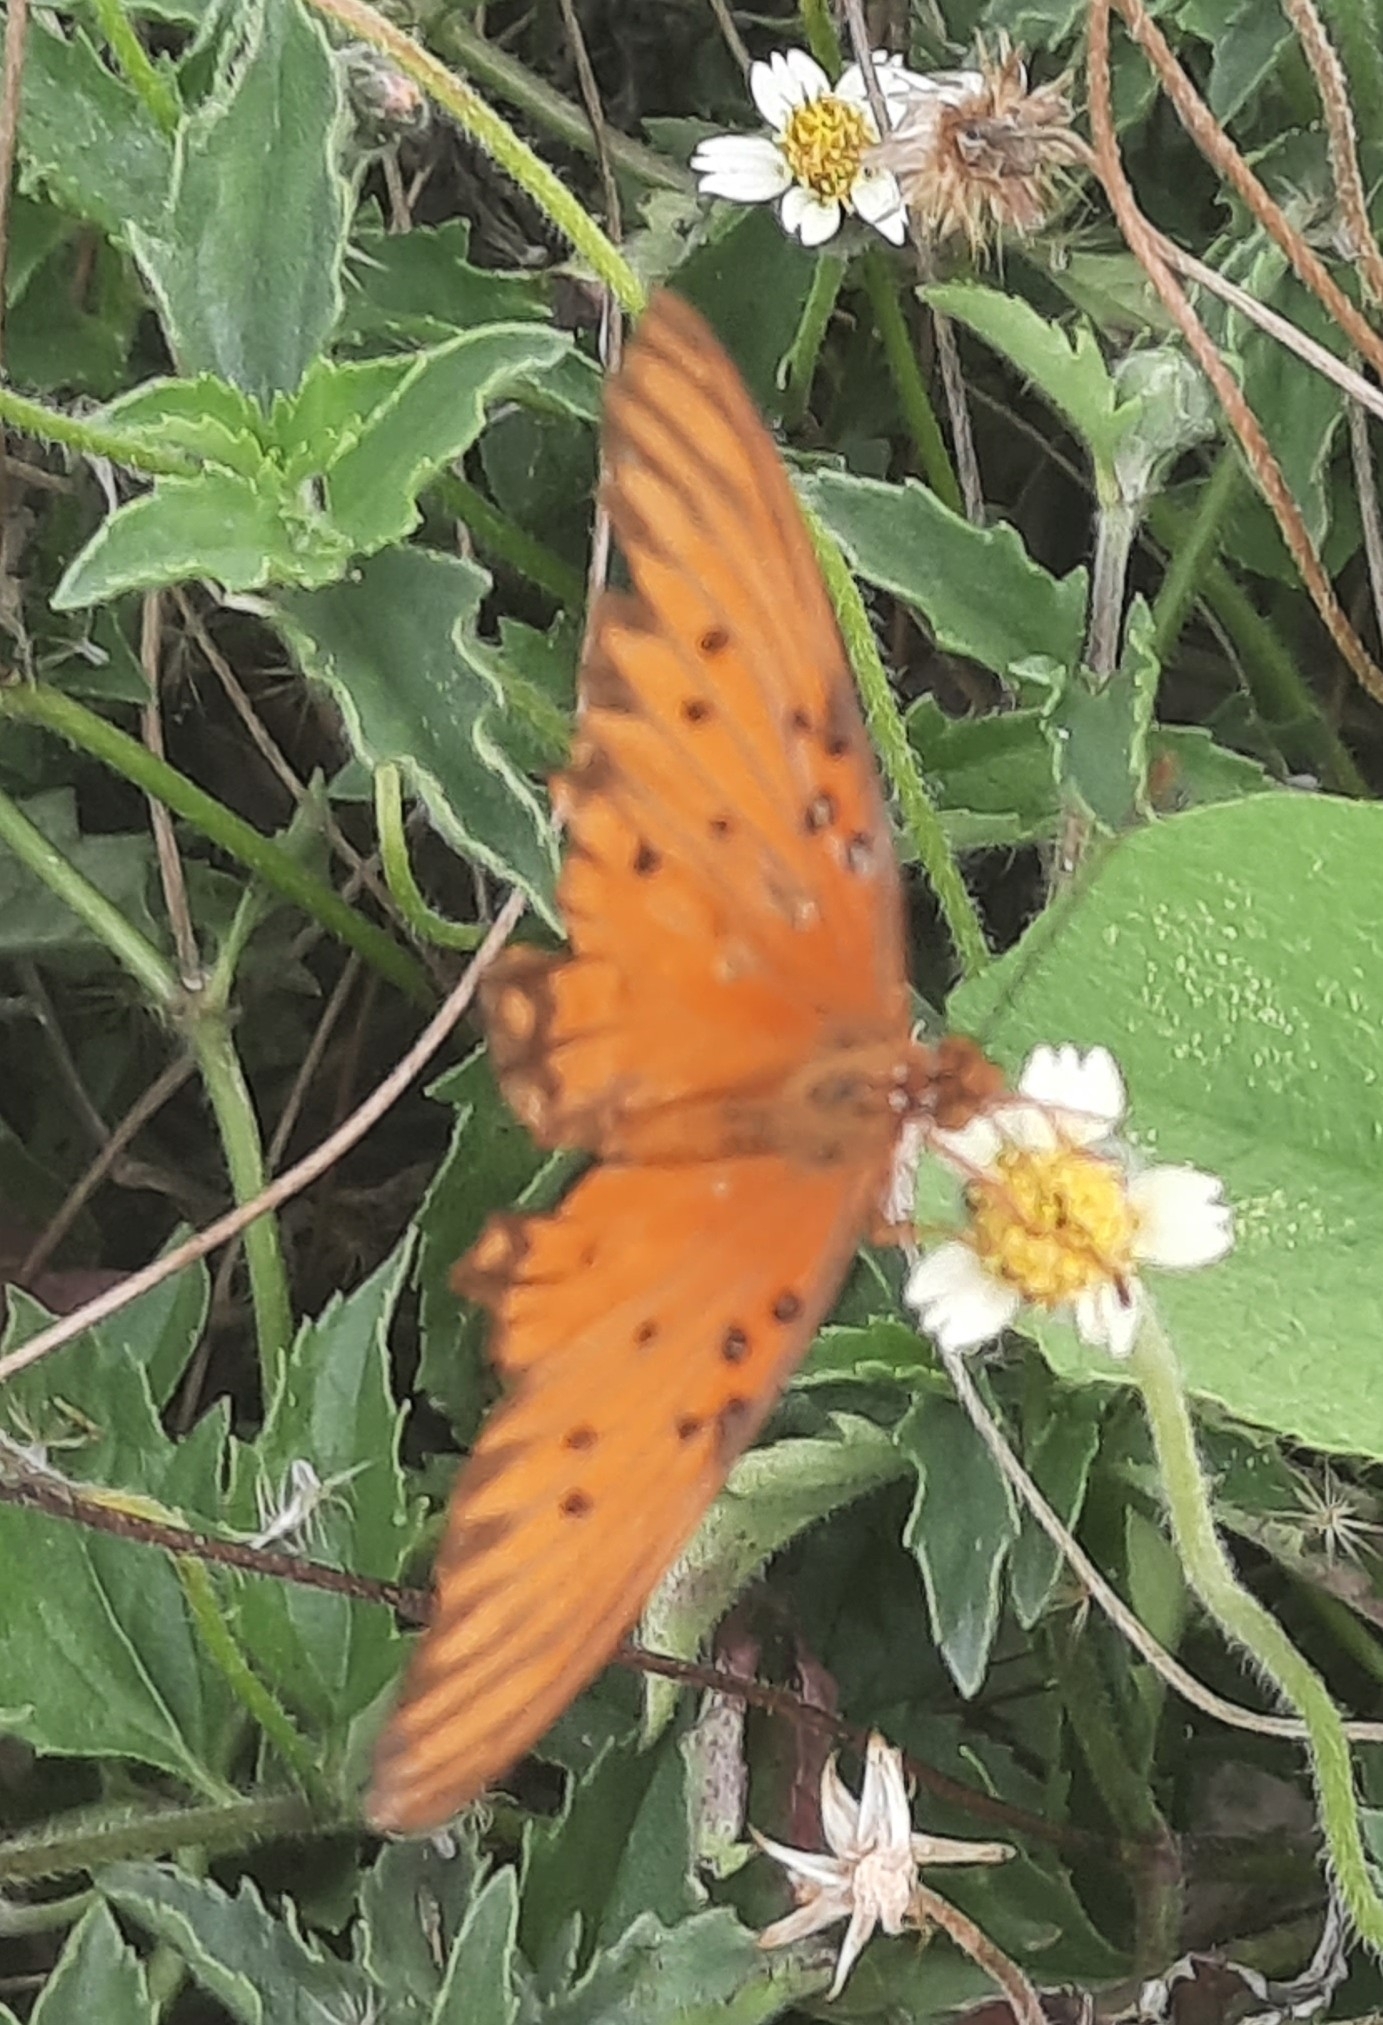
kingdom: Animalia
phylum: Arthropoda
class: Insecta
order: Lepidoptera
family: Nymphalidae
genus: Dione
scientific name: Dione vanillae
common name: Gulf fritillary
